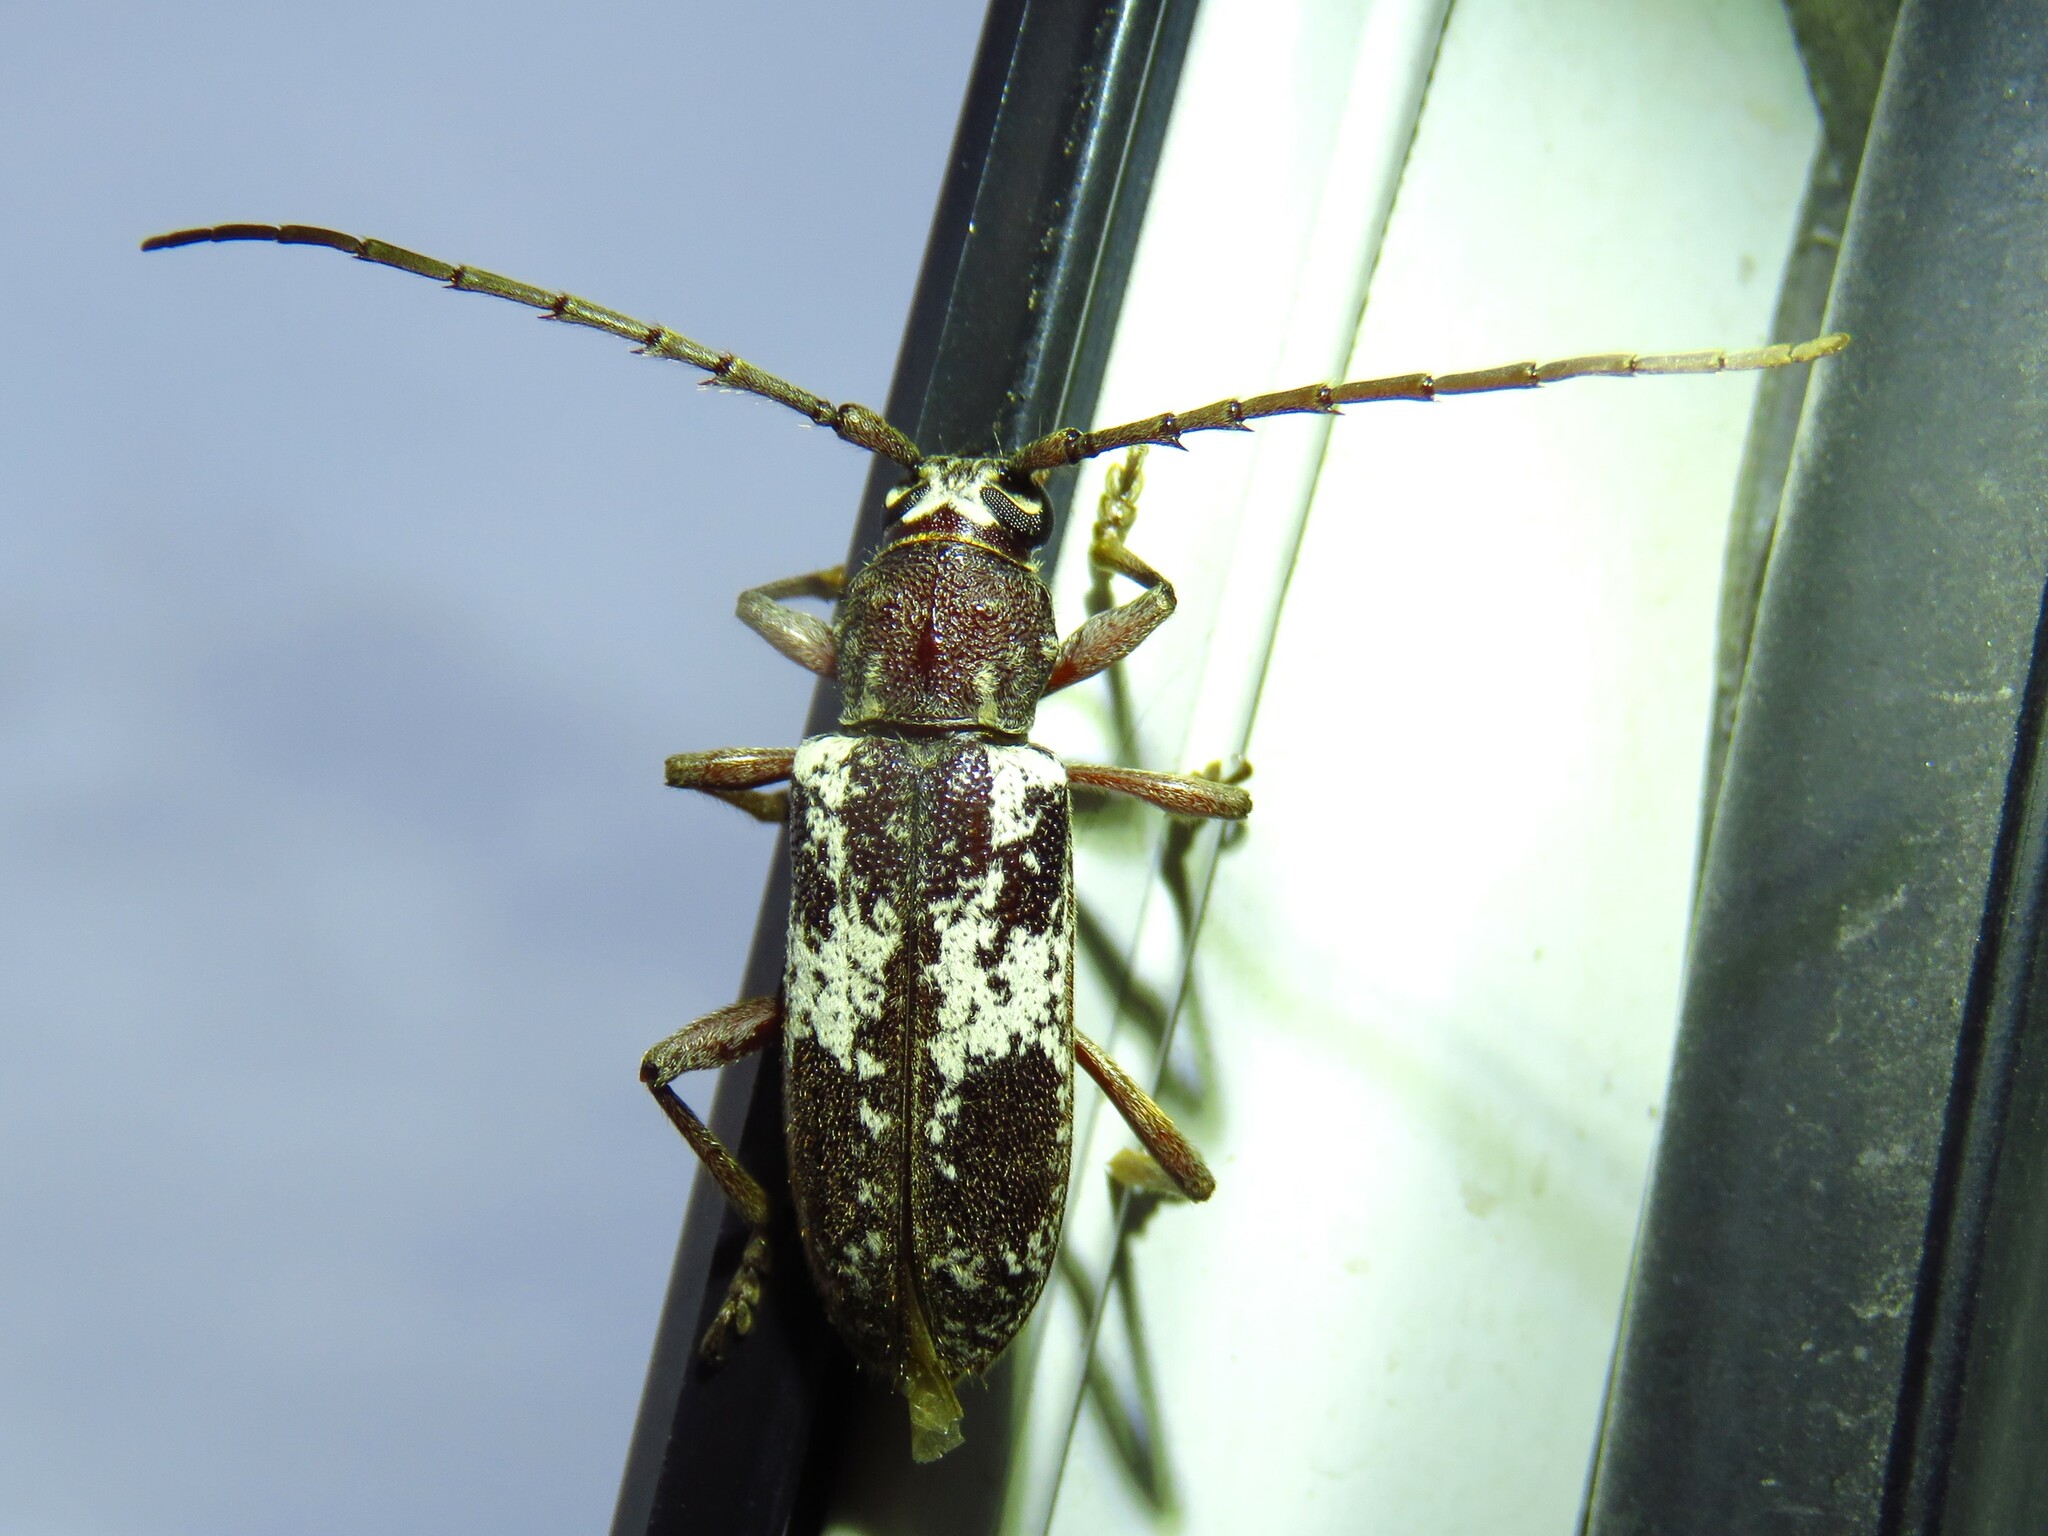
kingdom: Animalia
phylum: Arthropoda
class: Insecta
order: Coleoptera
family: Cerambycidae
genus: Enaphalodes
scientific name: Enaphalodes taeniatus
